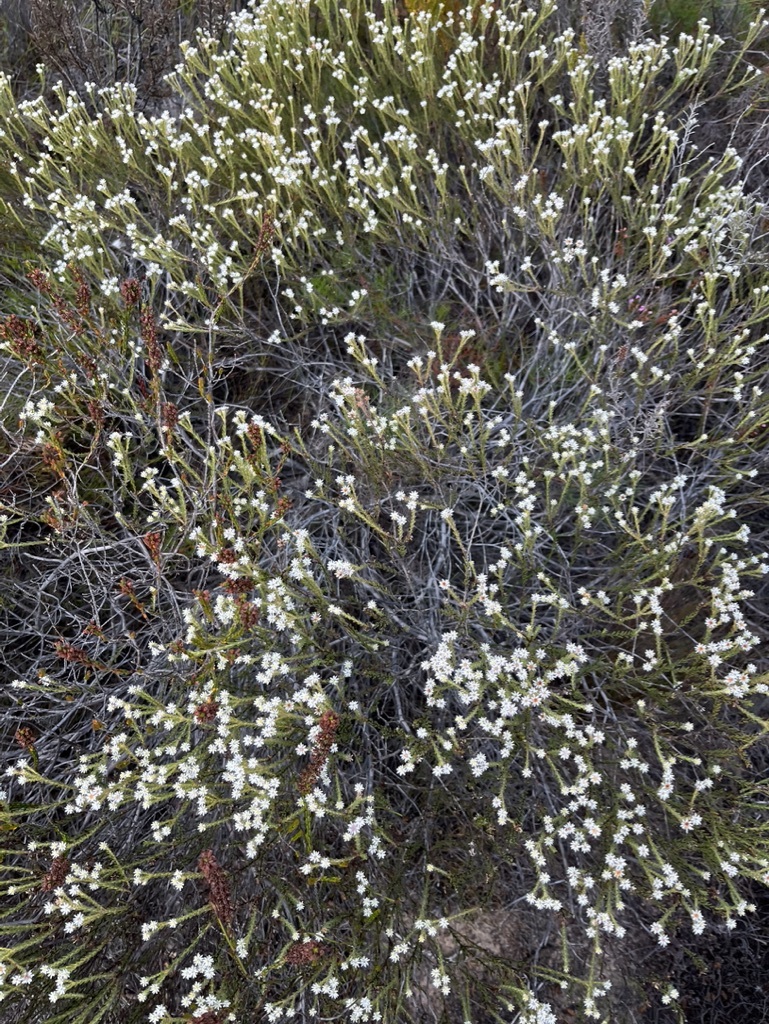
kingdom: Plantae
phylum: Tracheophyta
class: Magnoliopsida
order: Bruniales
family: Bruniaceae
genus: Staavia
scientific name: Staavia radiata
